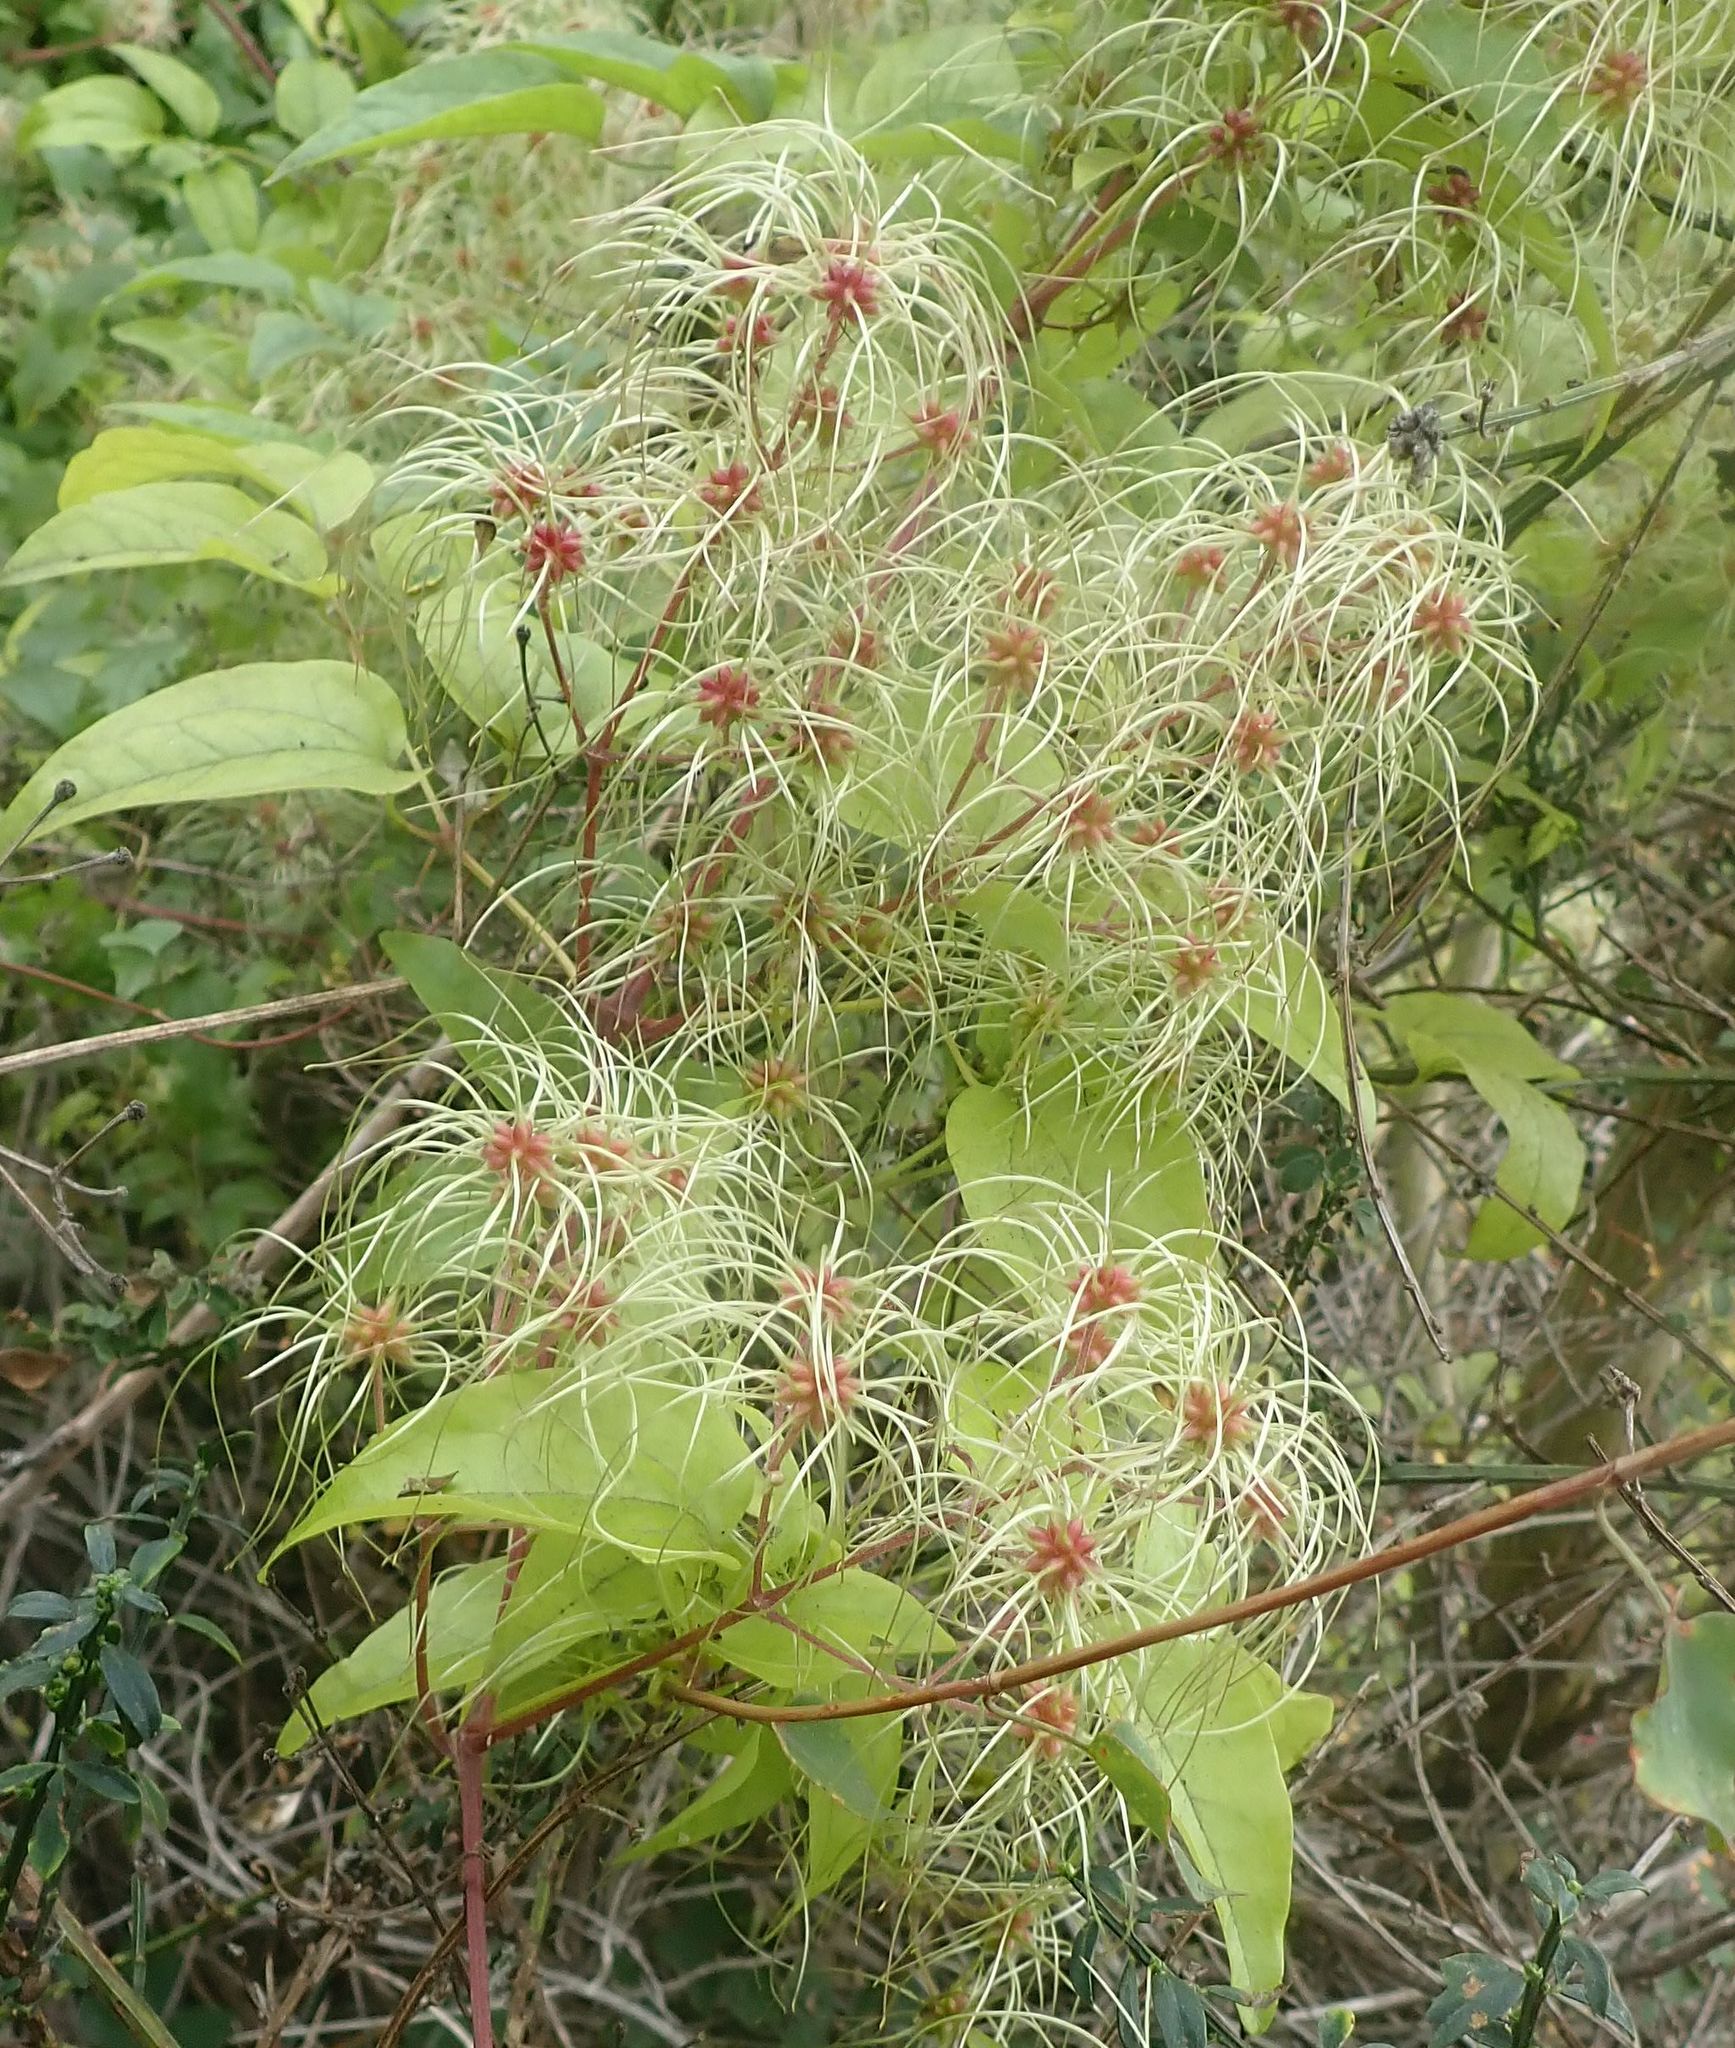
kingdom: Plantae
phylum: Tracheophyta
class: Magnoliopsida
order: Ranunculales
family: Ranunculaceae
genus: Clematis
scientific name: Clematis vitalba
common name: Evergreen clematis
